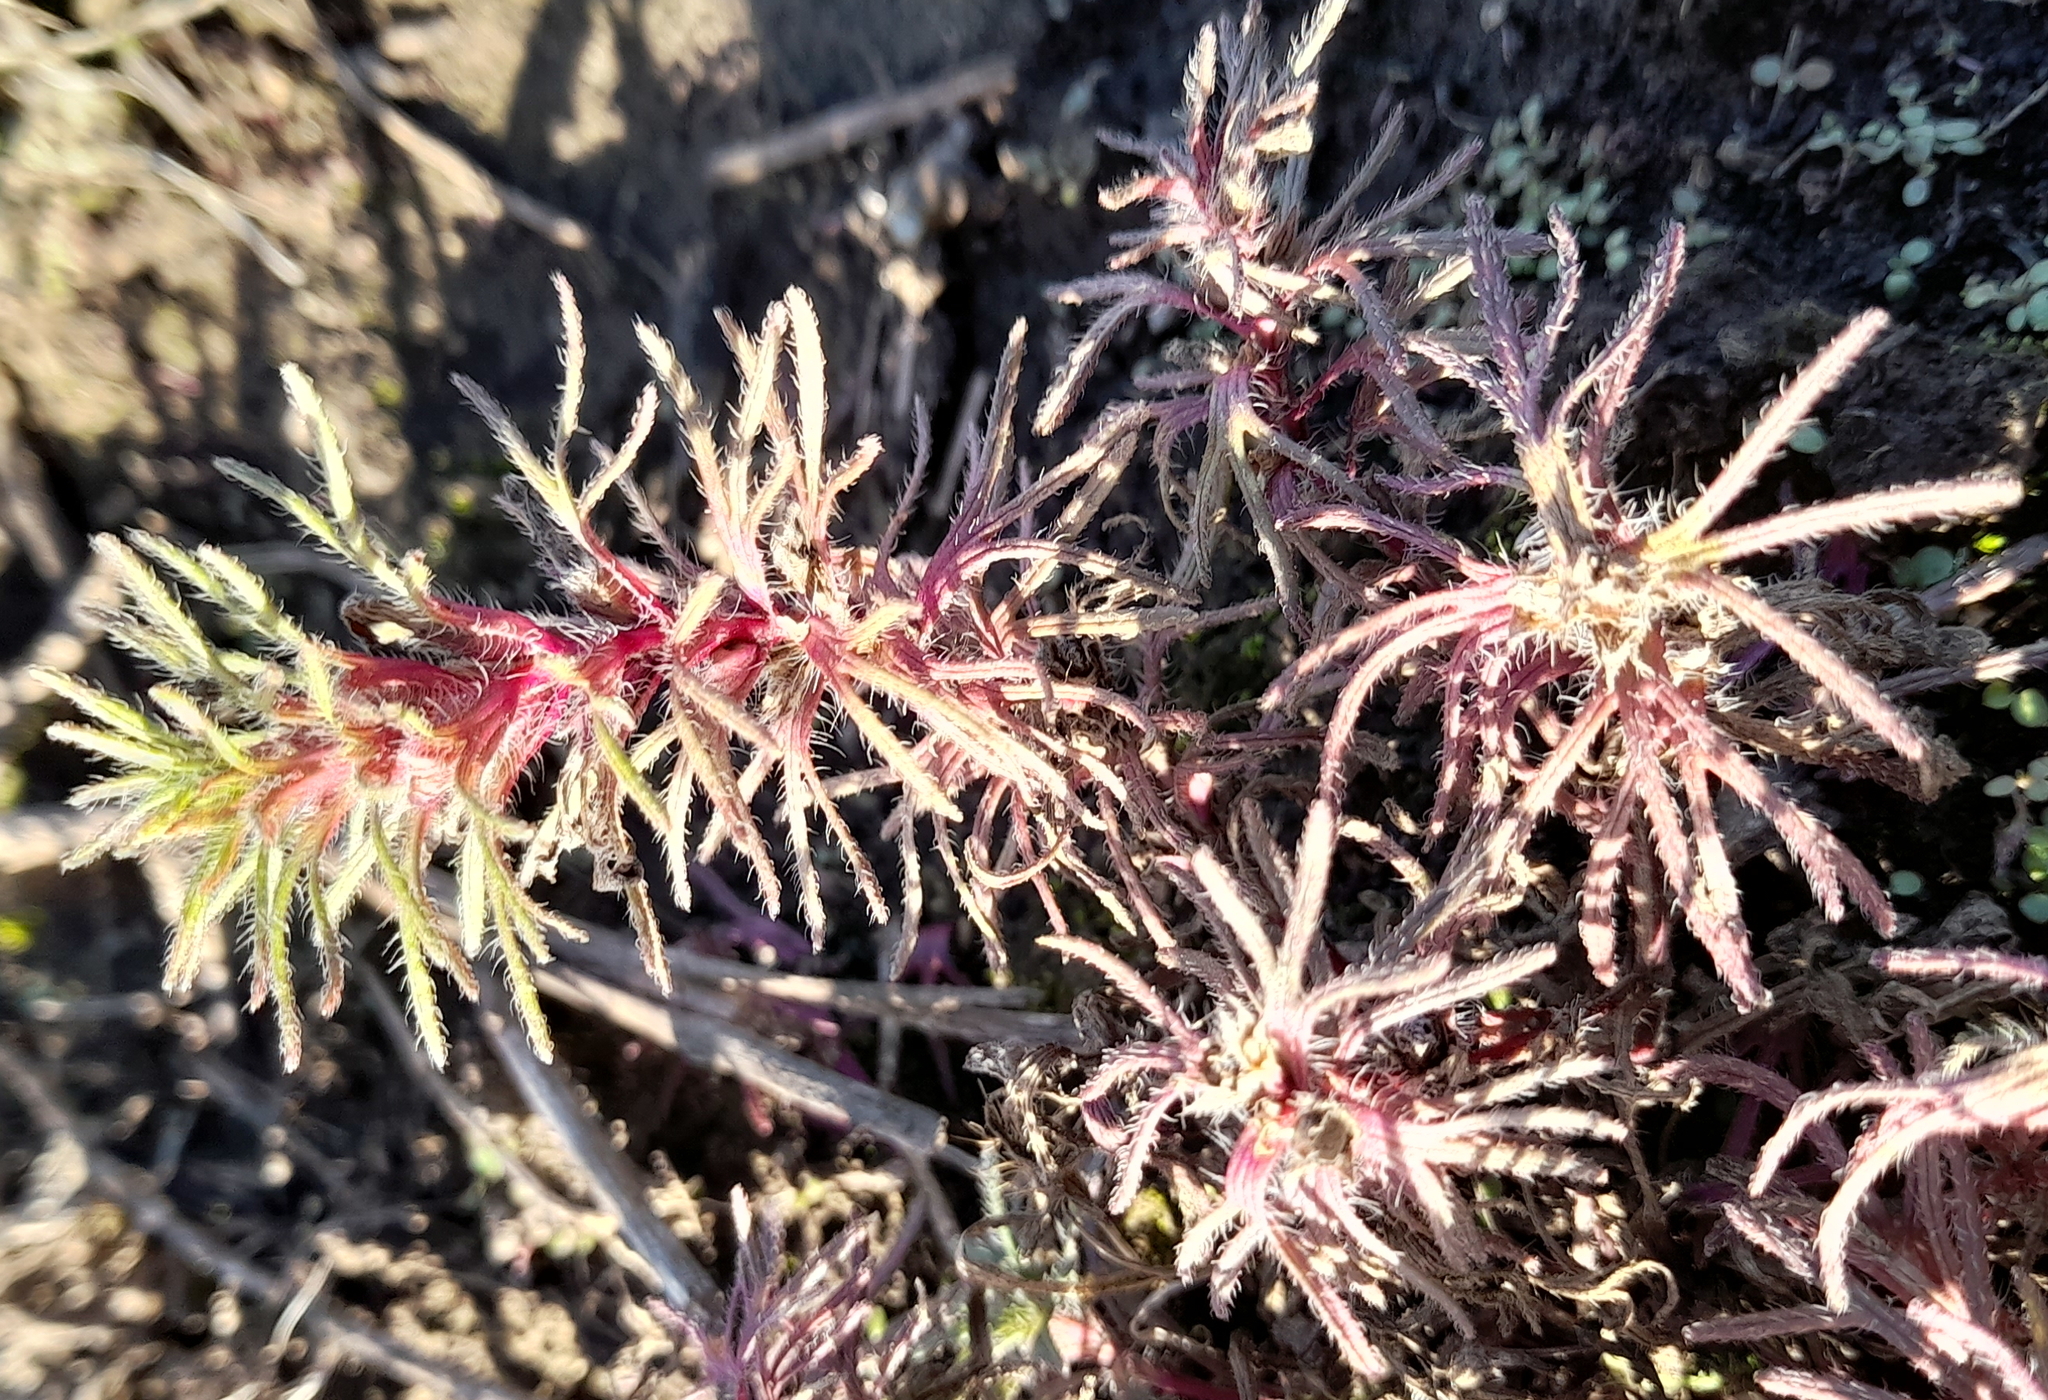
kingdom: Plantae
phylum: Tracheophyta
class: Magnoliopsida
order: Lamiales
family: Lamiaceae
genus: Ajuga
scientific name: Ajuga chamaepitys
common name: Ground-pine
